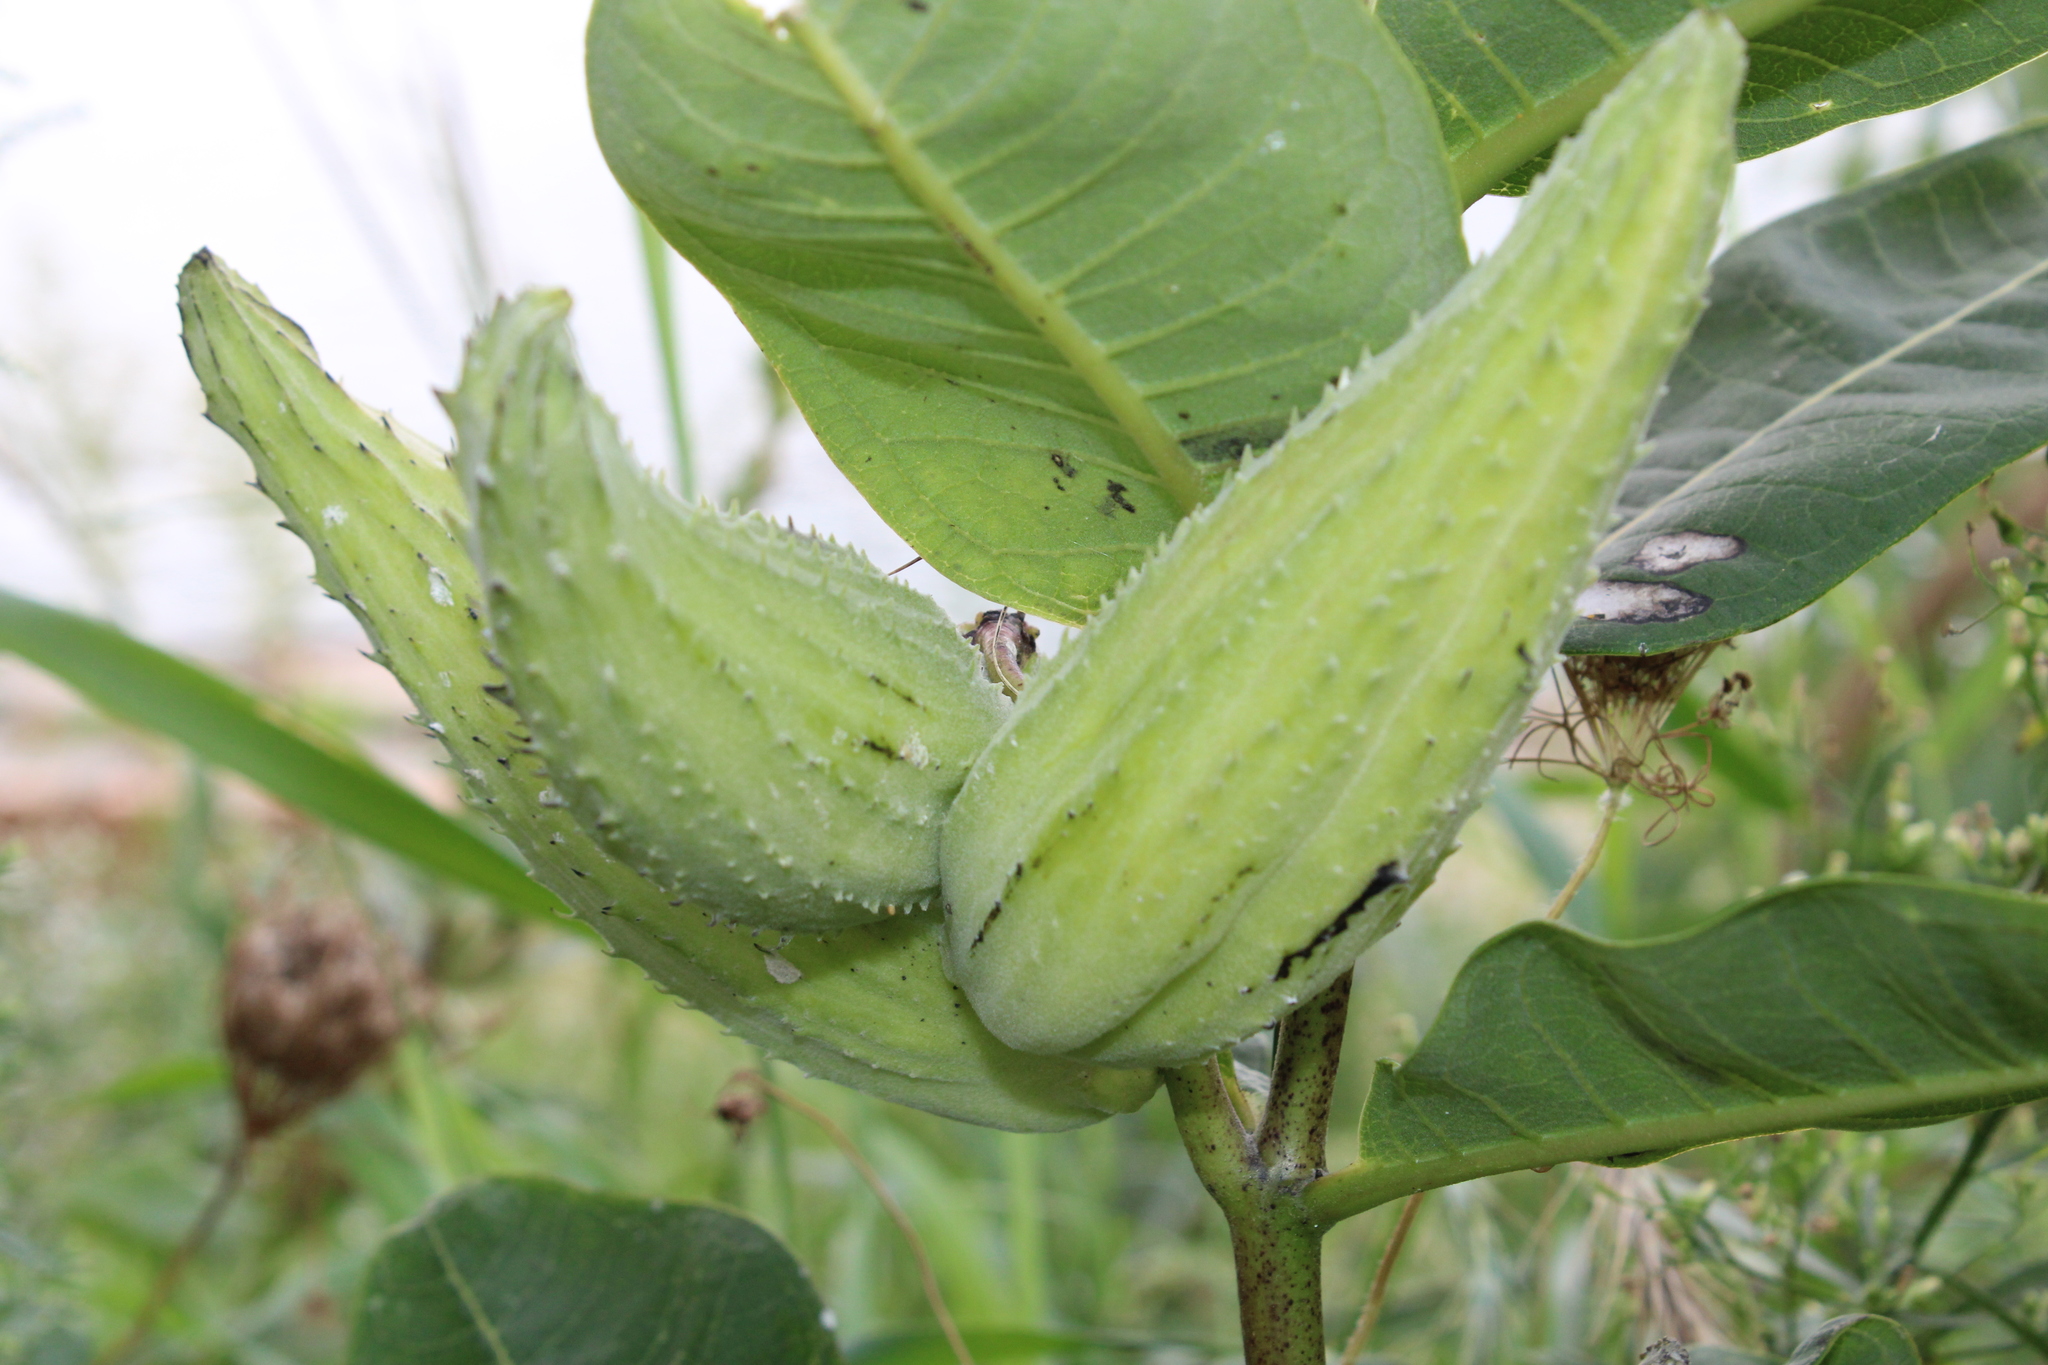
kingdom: Plantae
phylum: Tracheophyta
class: Magnoliopsida
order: Gentianales
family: Apocynaceae
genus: Asclepias
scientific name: Asclepias syriaca
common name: Common milkweed
